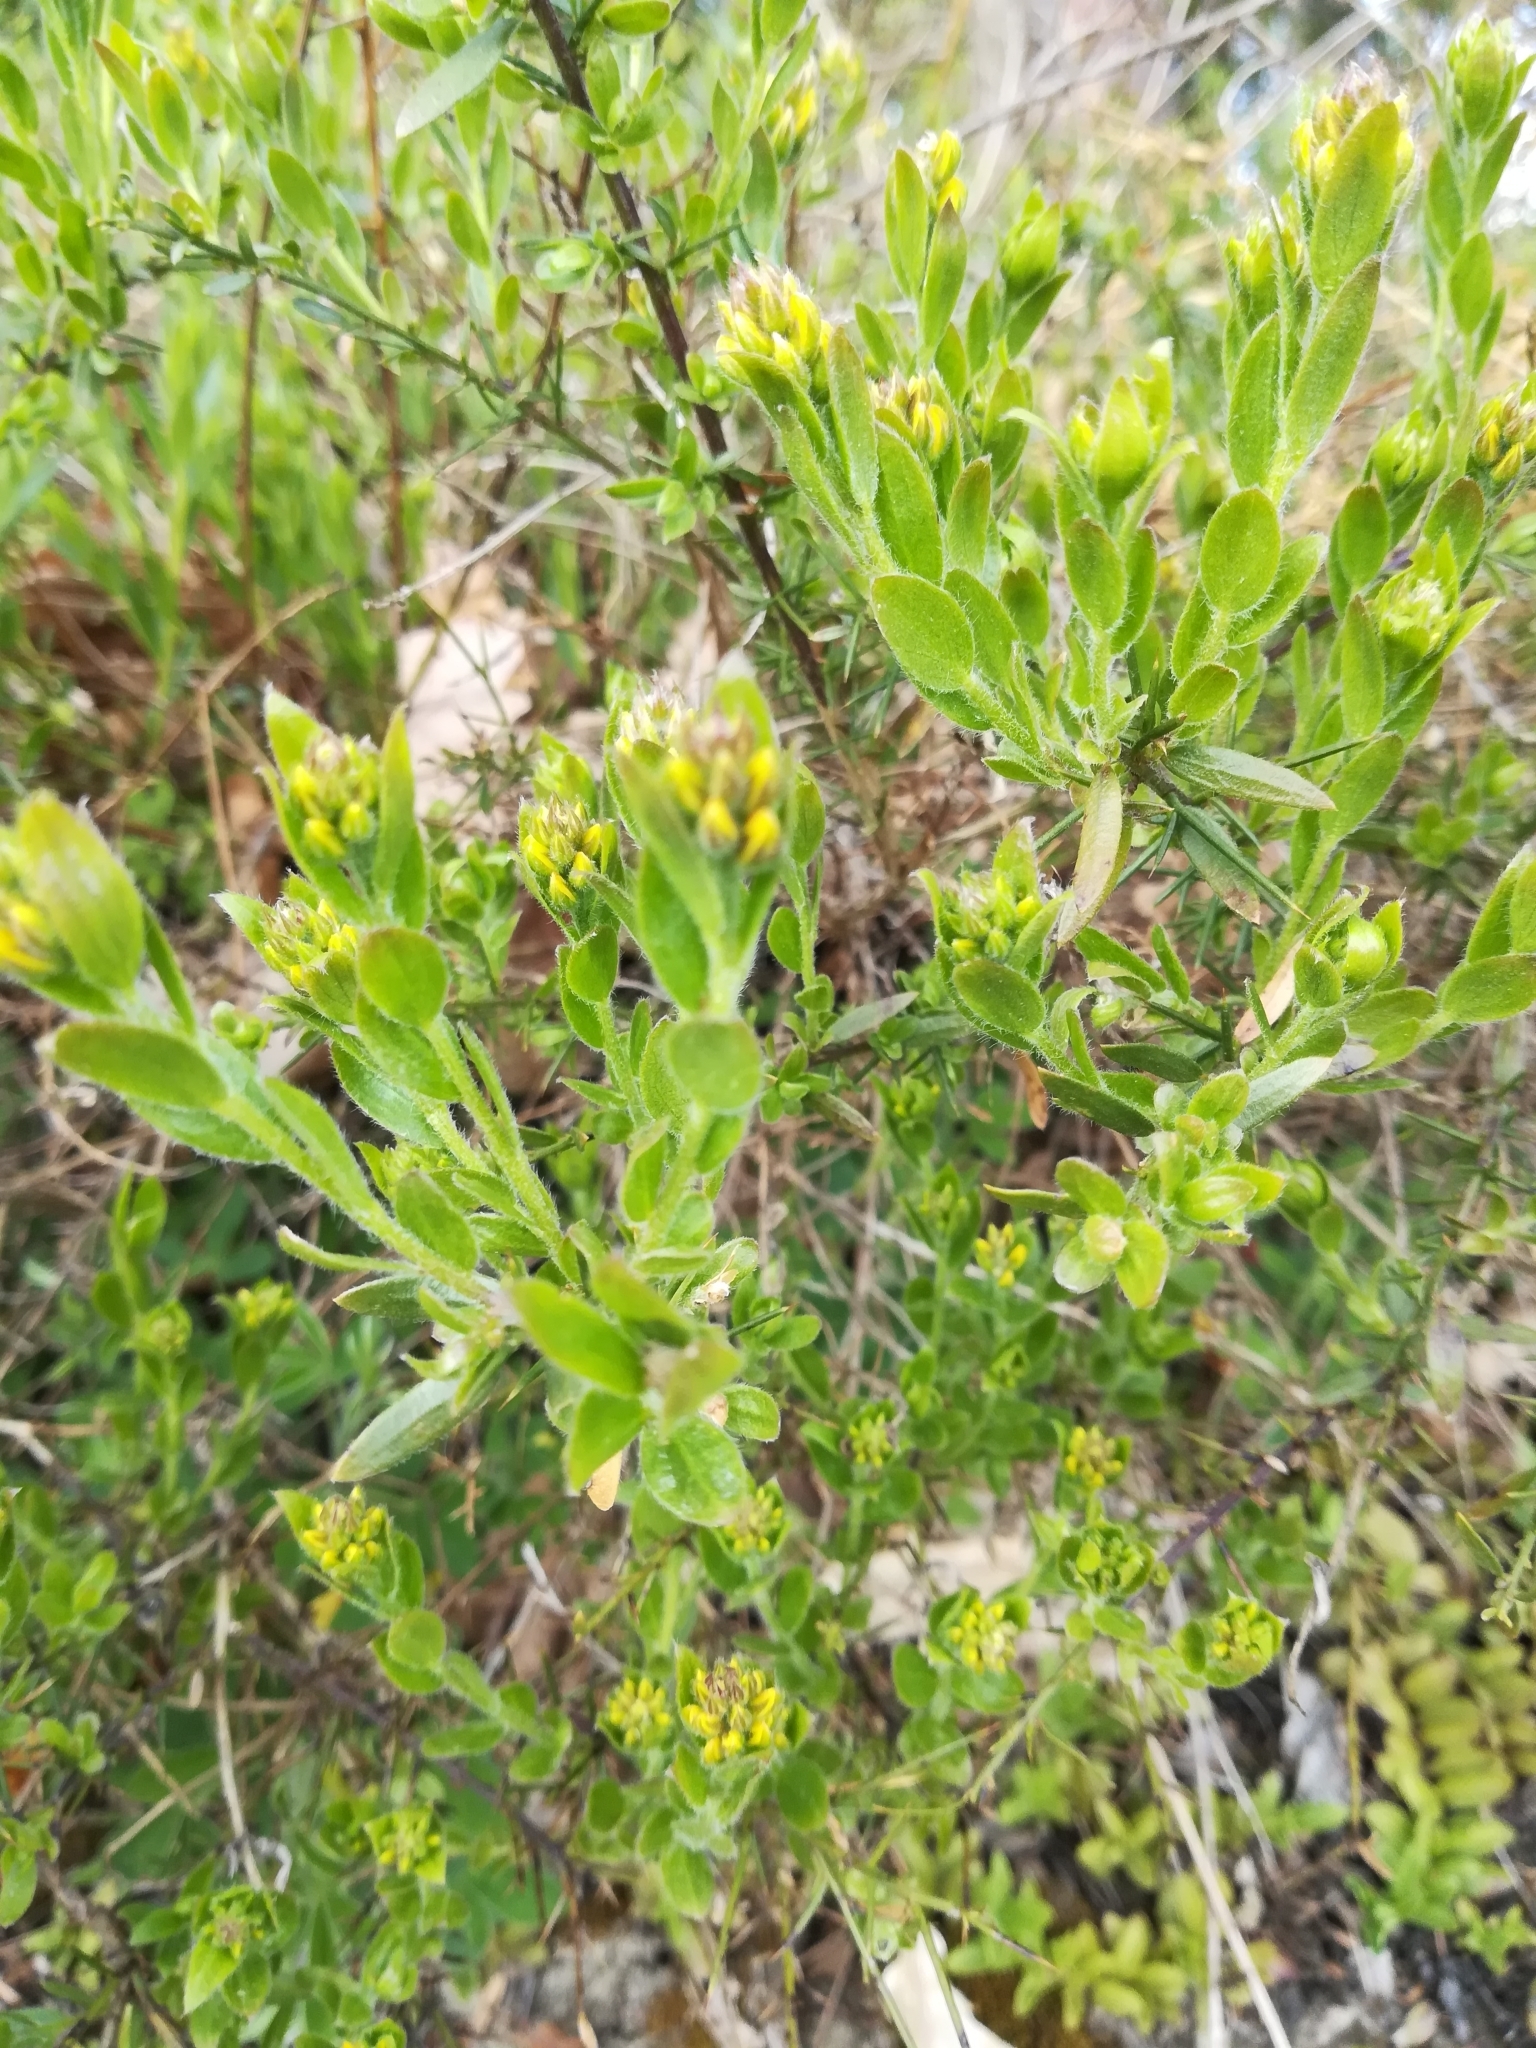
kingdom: Plantae
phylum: Tracheophyta
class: Magnoliopsida
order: Fabales
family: Fabaceae
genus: Genista
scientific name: Genista germanica
